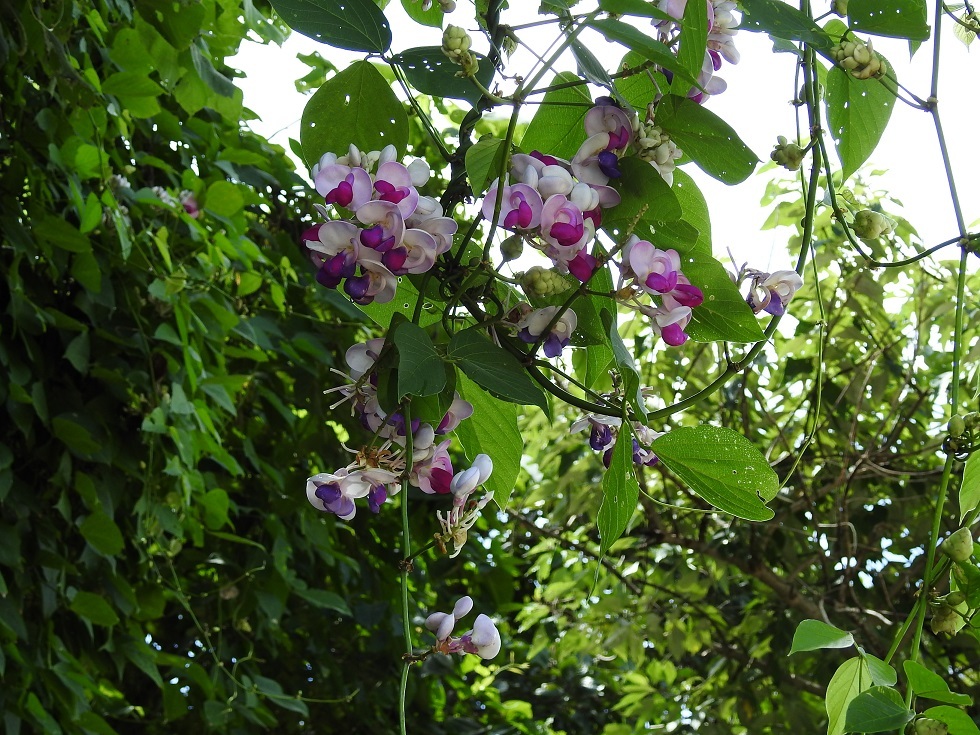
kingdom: Plantae
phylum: Tracheophyta
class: Magnoliopsida
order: Fabales
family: Fabaceae
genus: Ramirezella
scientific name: Ramirezella penduliflora
